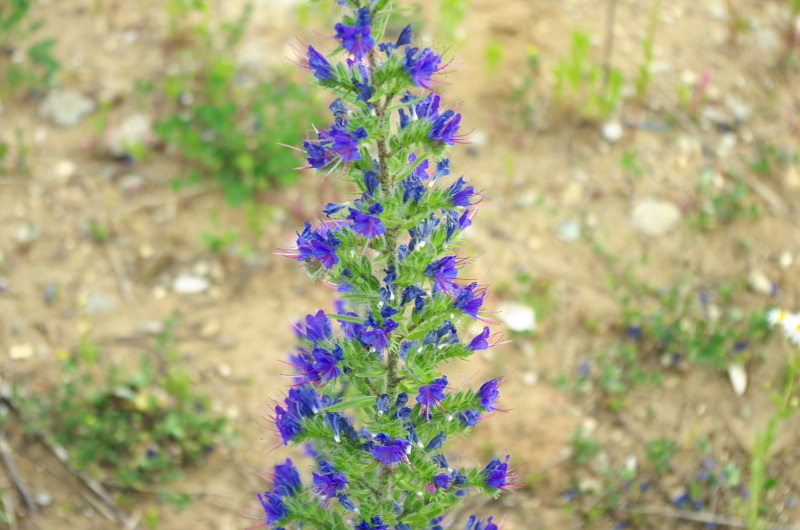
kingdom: Plantae
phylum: Tracheophyta
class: Magnoliopsida
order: Boraginales
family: Boraginaceae
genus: Echium
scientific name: Echium vulgare
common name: Common viper's bugloss
